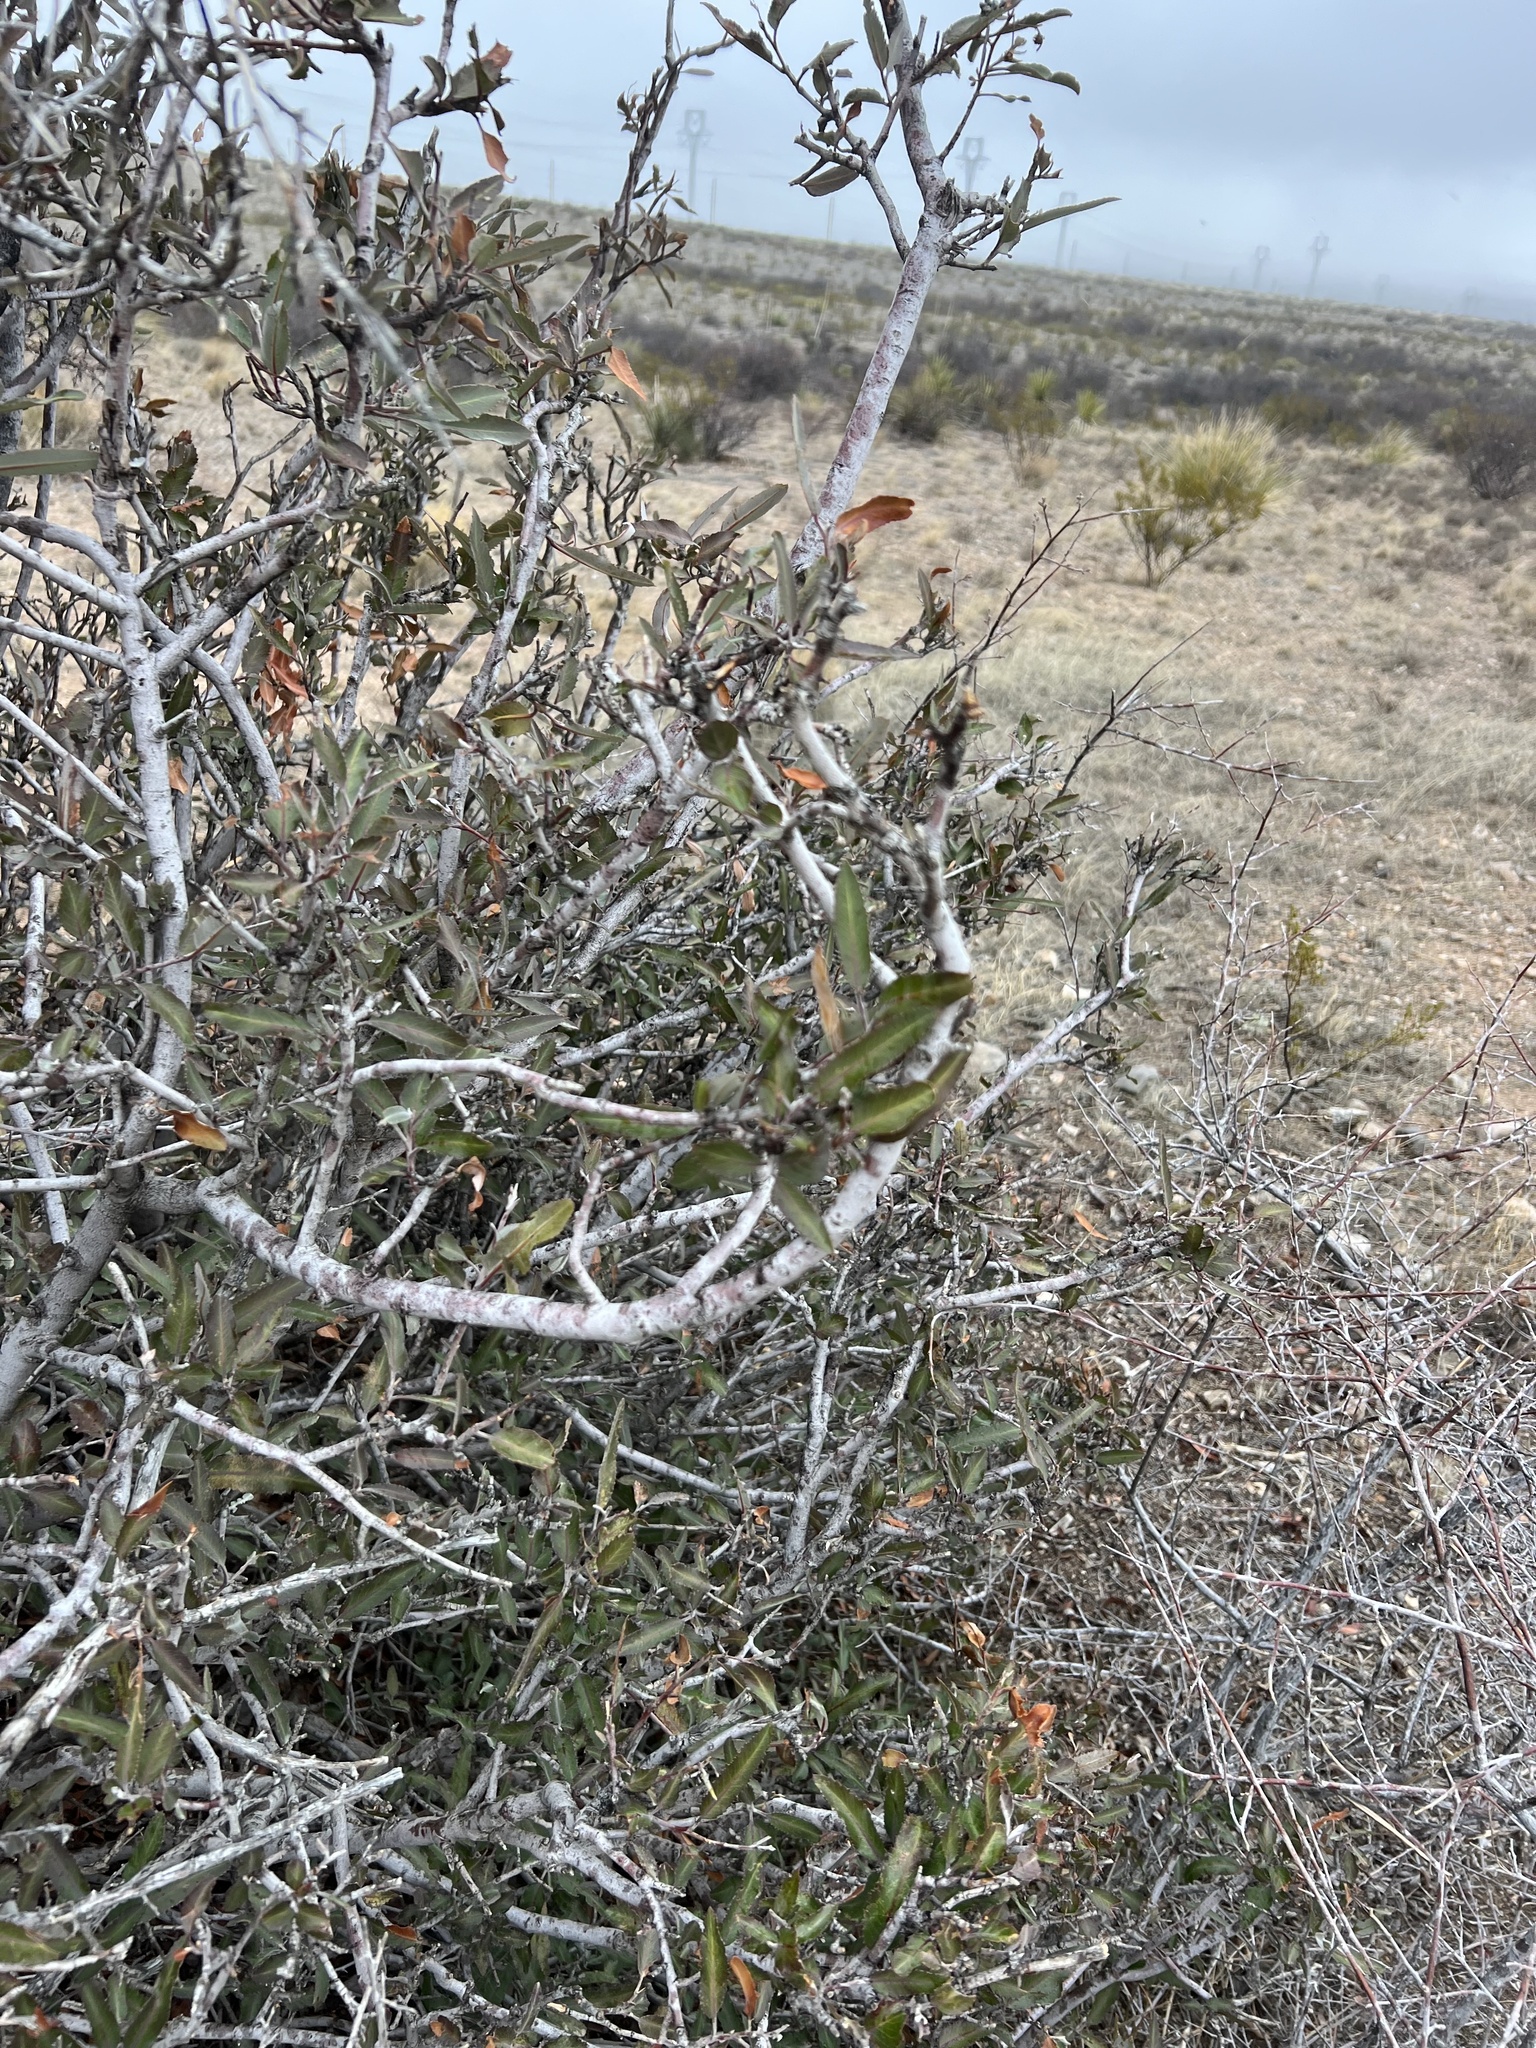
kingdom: Plantae
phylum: Tracheophyta
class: Magnoliopsida
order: Rosales
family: Rosaceae
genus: Vauquelinia
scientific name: Vauquelinia californica
